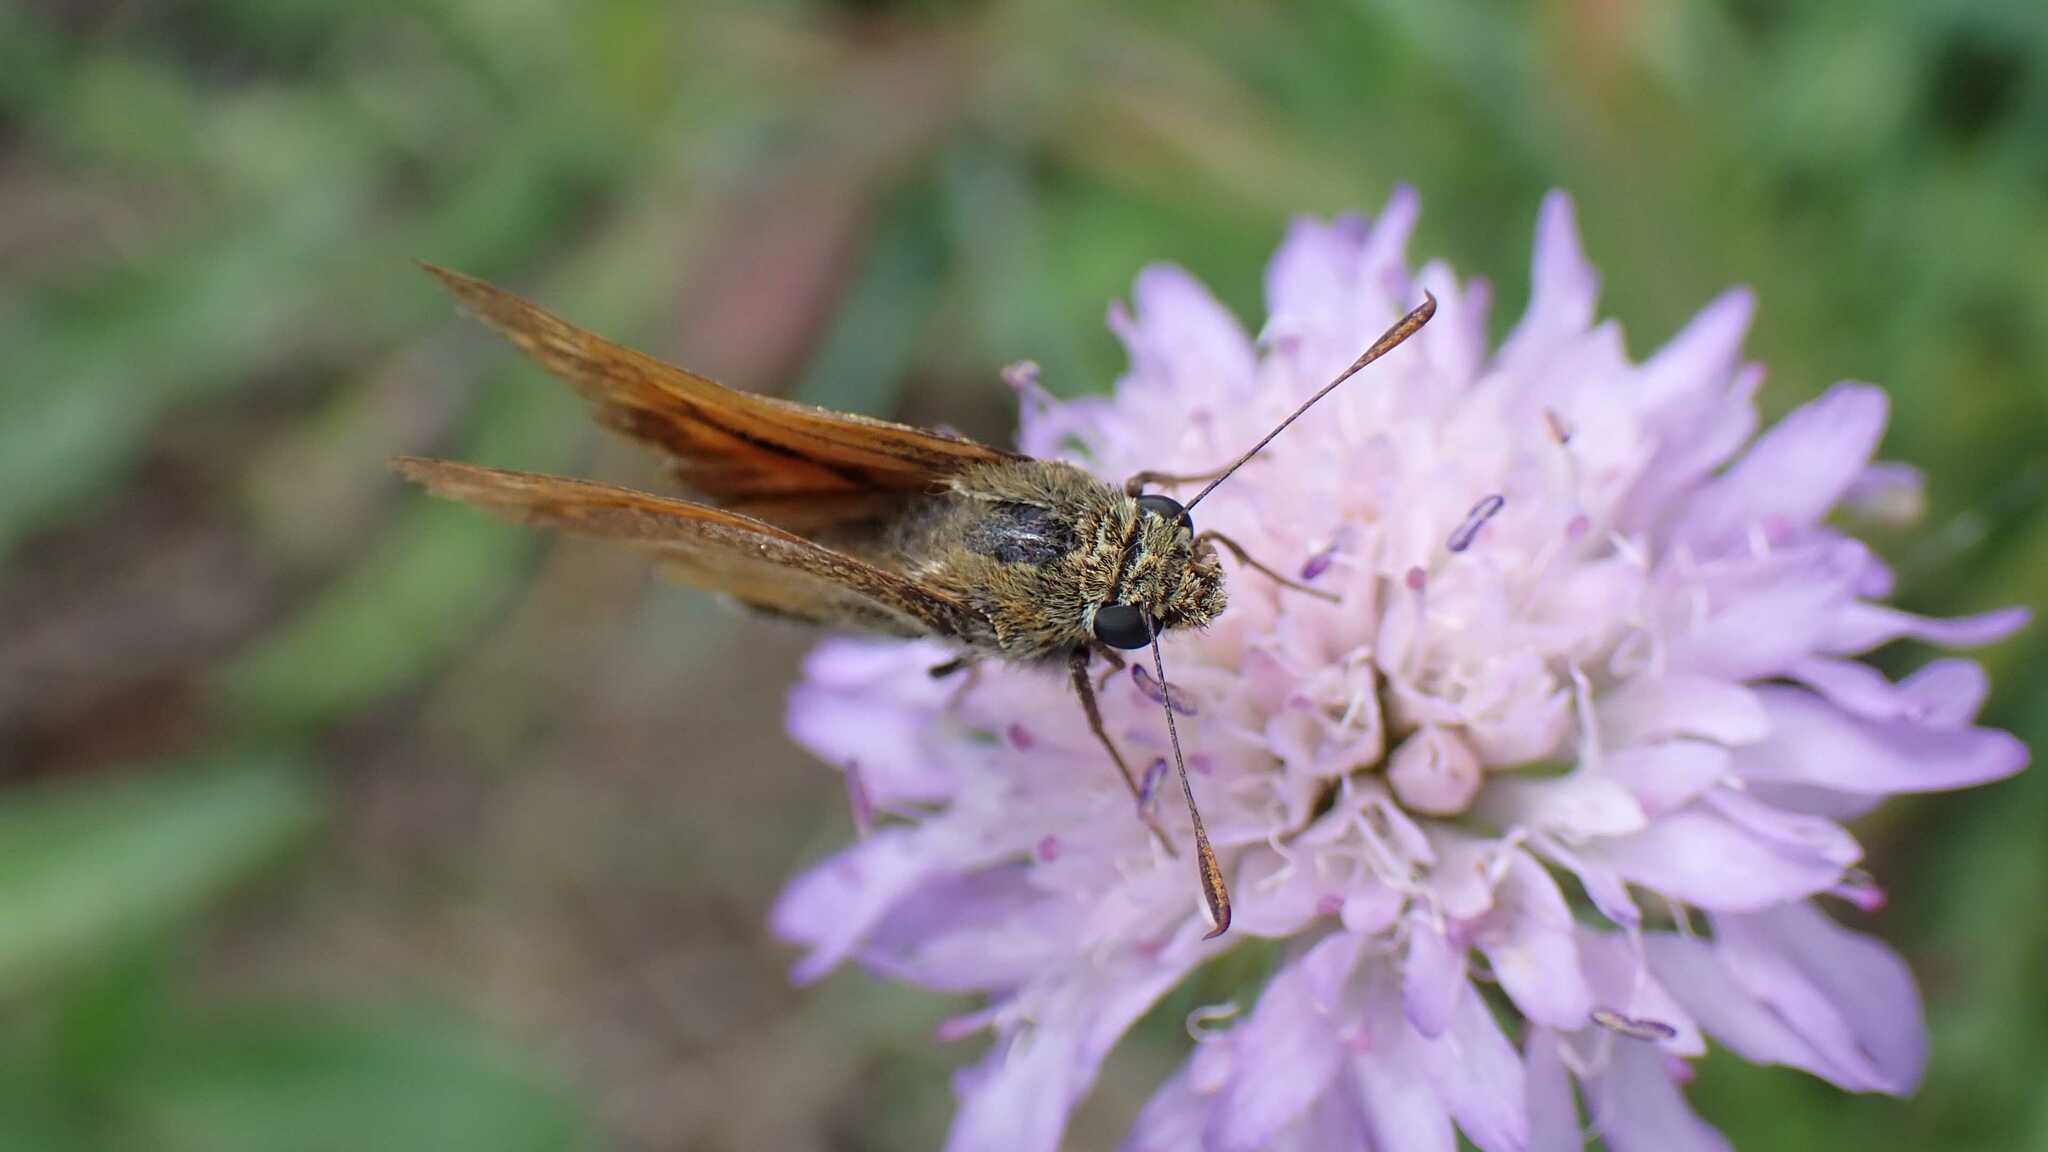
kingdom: Animalia
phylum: Arthropoda
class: Insecta
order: Lepidoptera
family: Hesperiidae
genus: Ochlodes
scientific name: Ochlodes venata
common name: Large skipper
